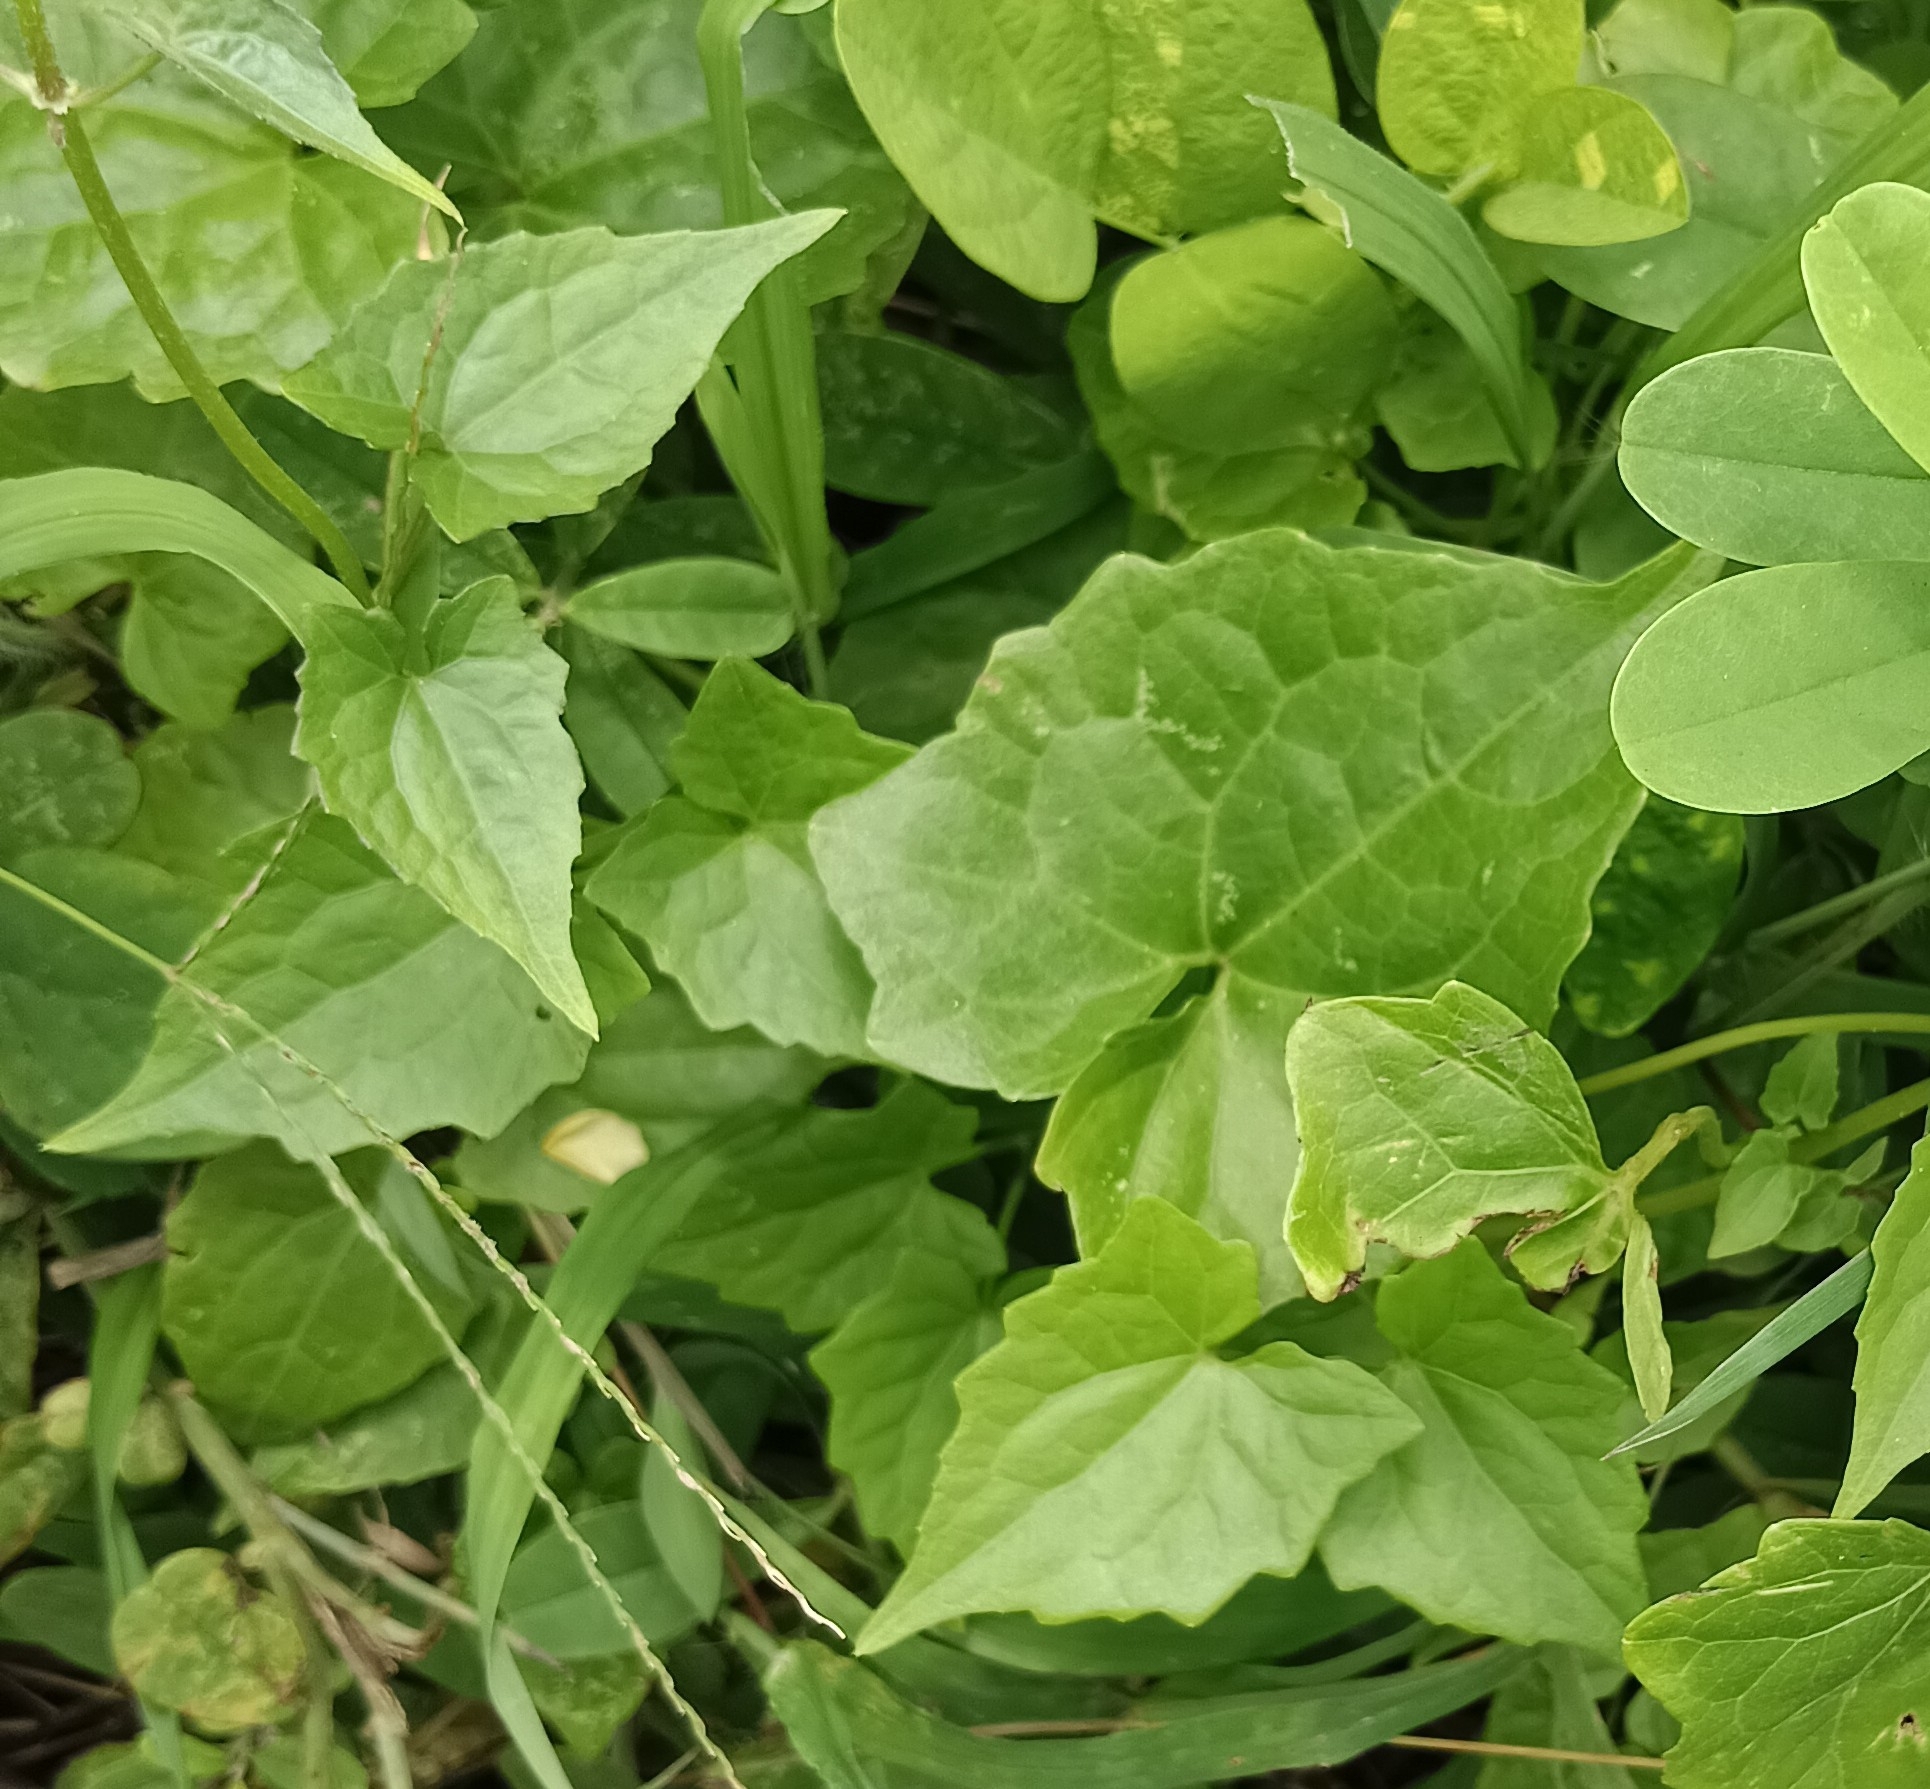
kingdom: Plantae
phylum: Tracheophyta
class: Magnoliopsida
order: Asterales
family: Asteraceae
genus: Mikania
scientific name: Mikania micrantha
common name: Mile-a-minute
